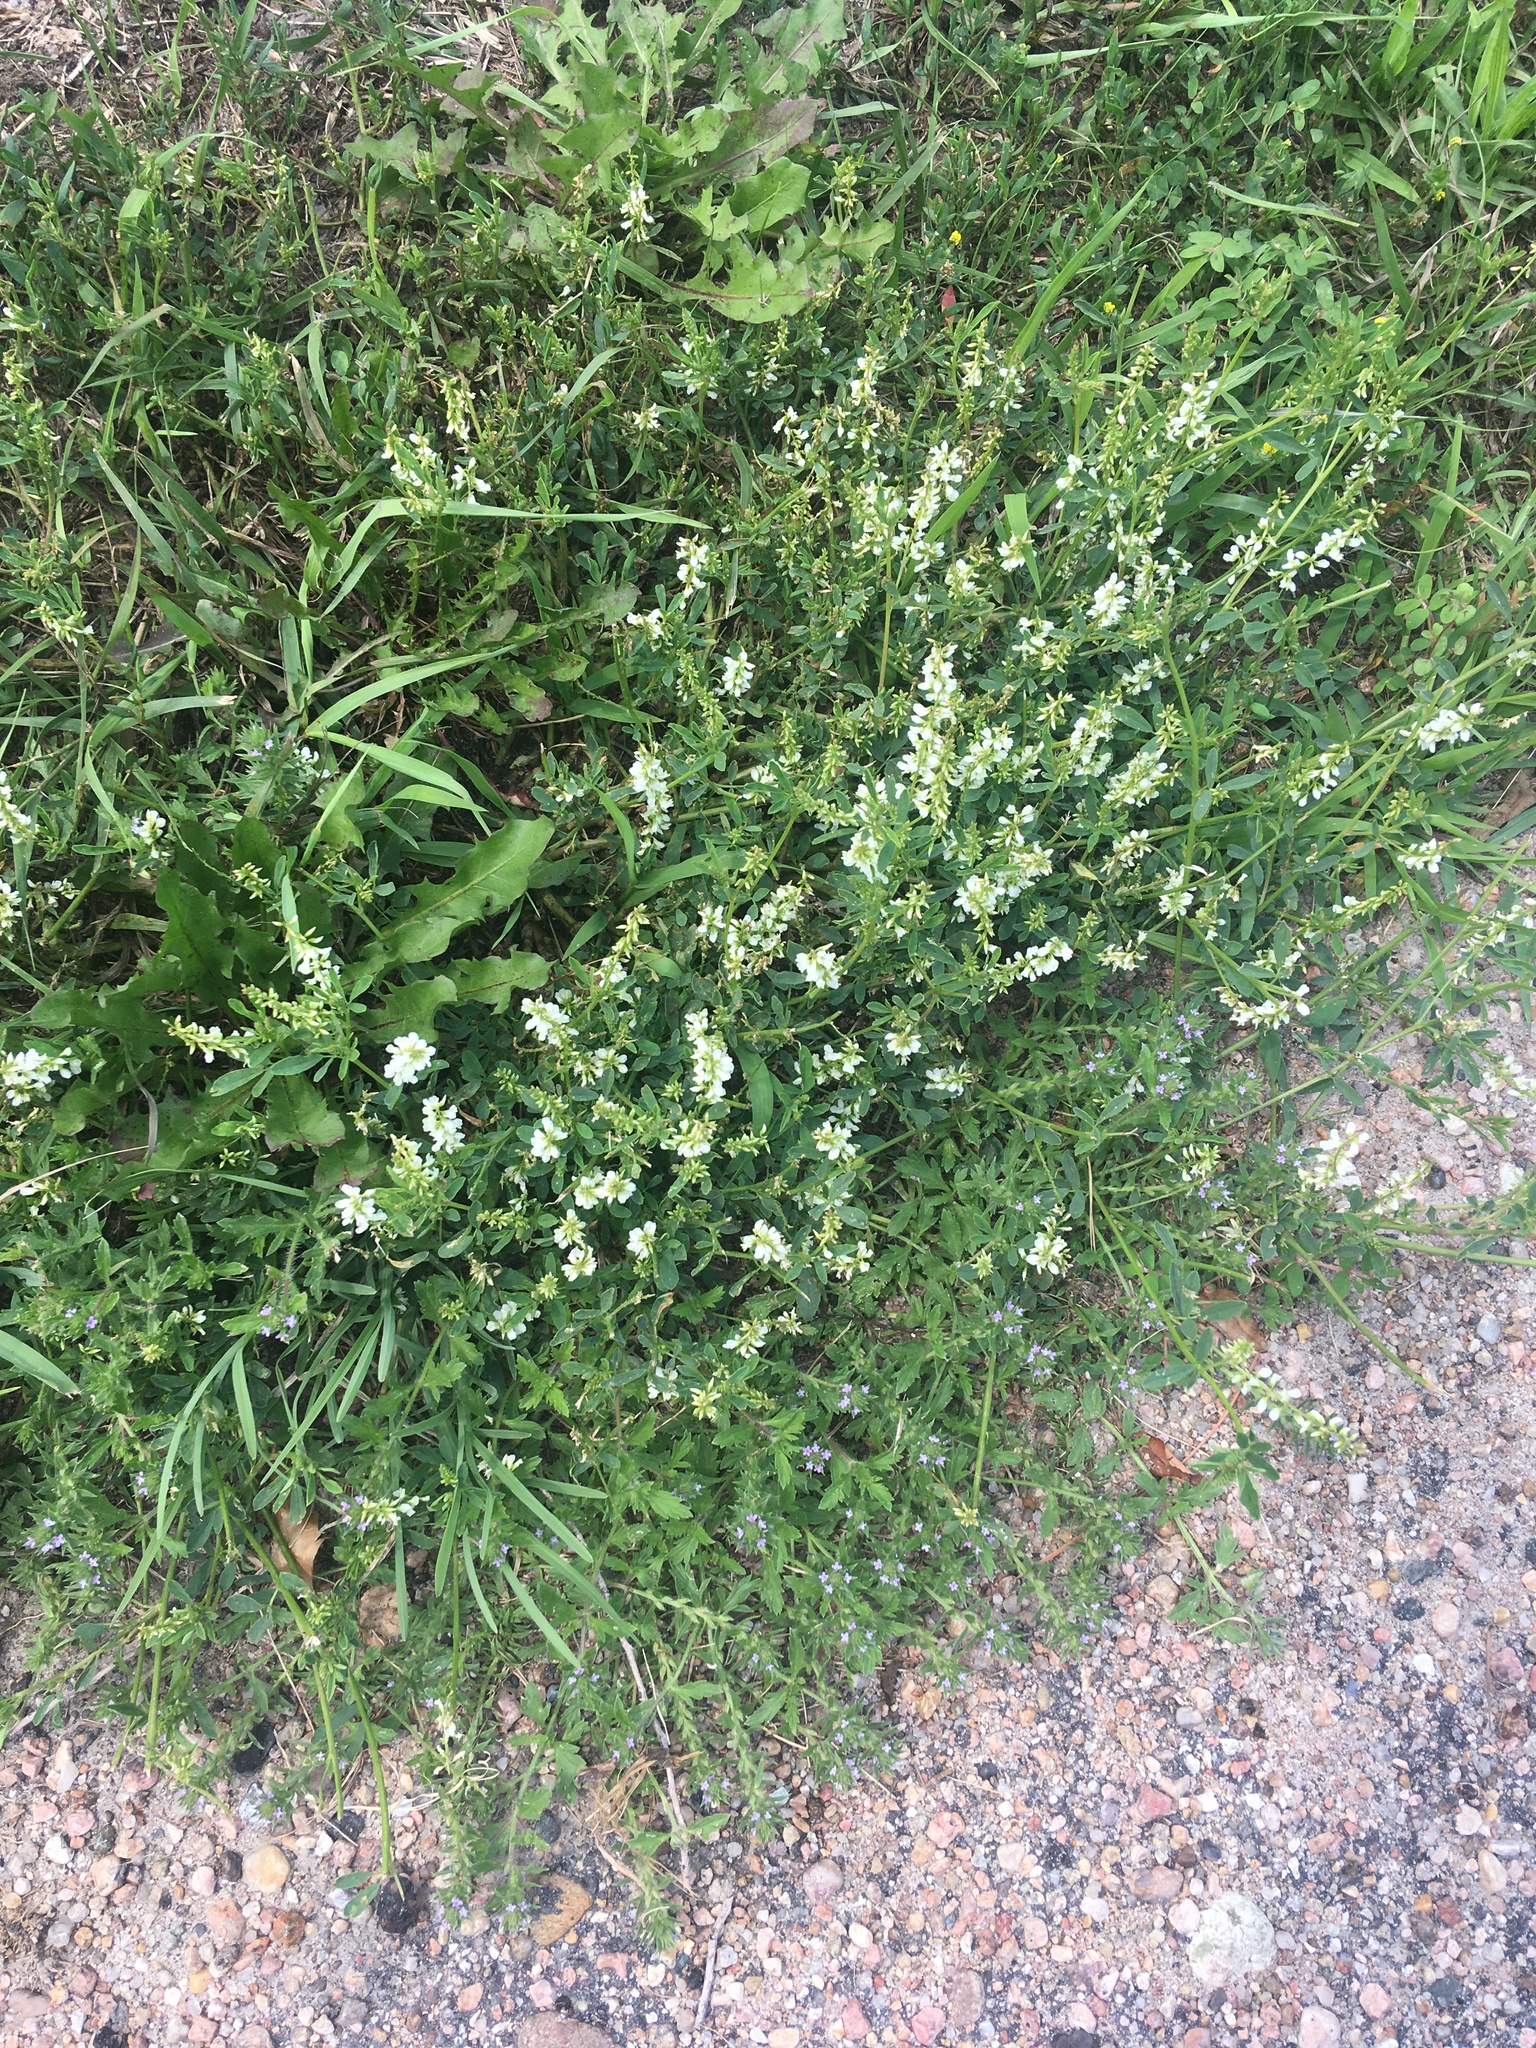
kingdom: Plantae
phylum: Tracheophyta
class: Magnoliopsida
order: Fabales
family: Fabaceae
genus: Melilotus
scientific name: Melilotus albus
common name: White melilot
